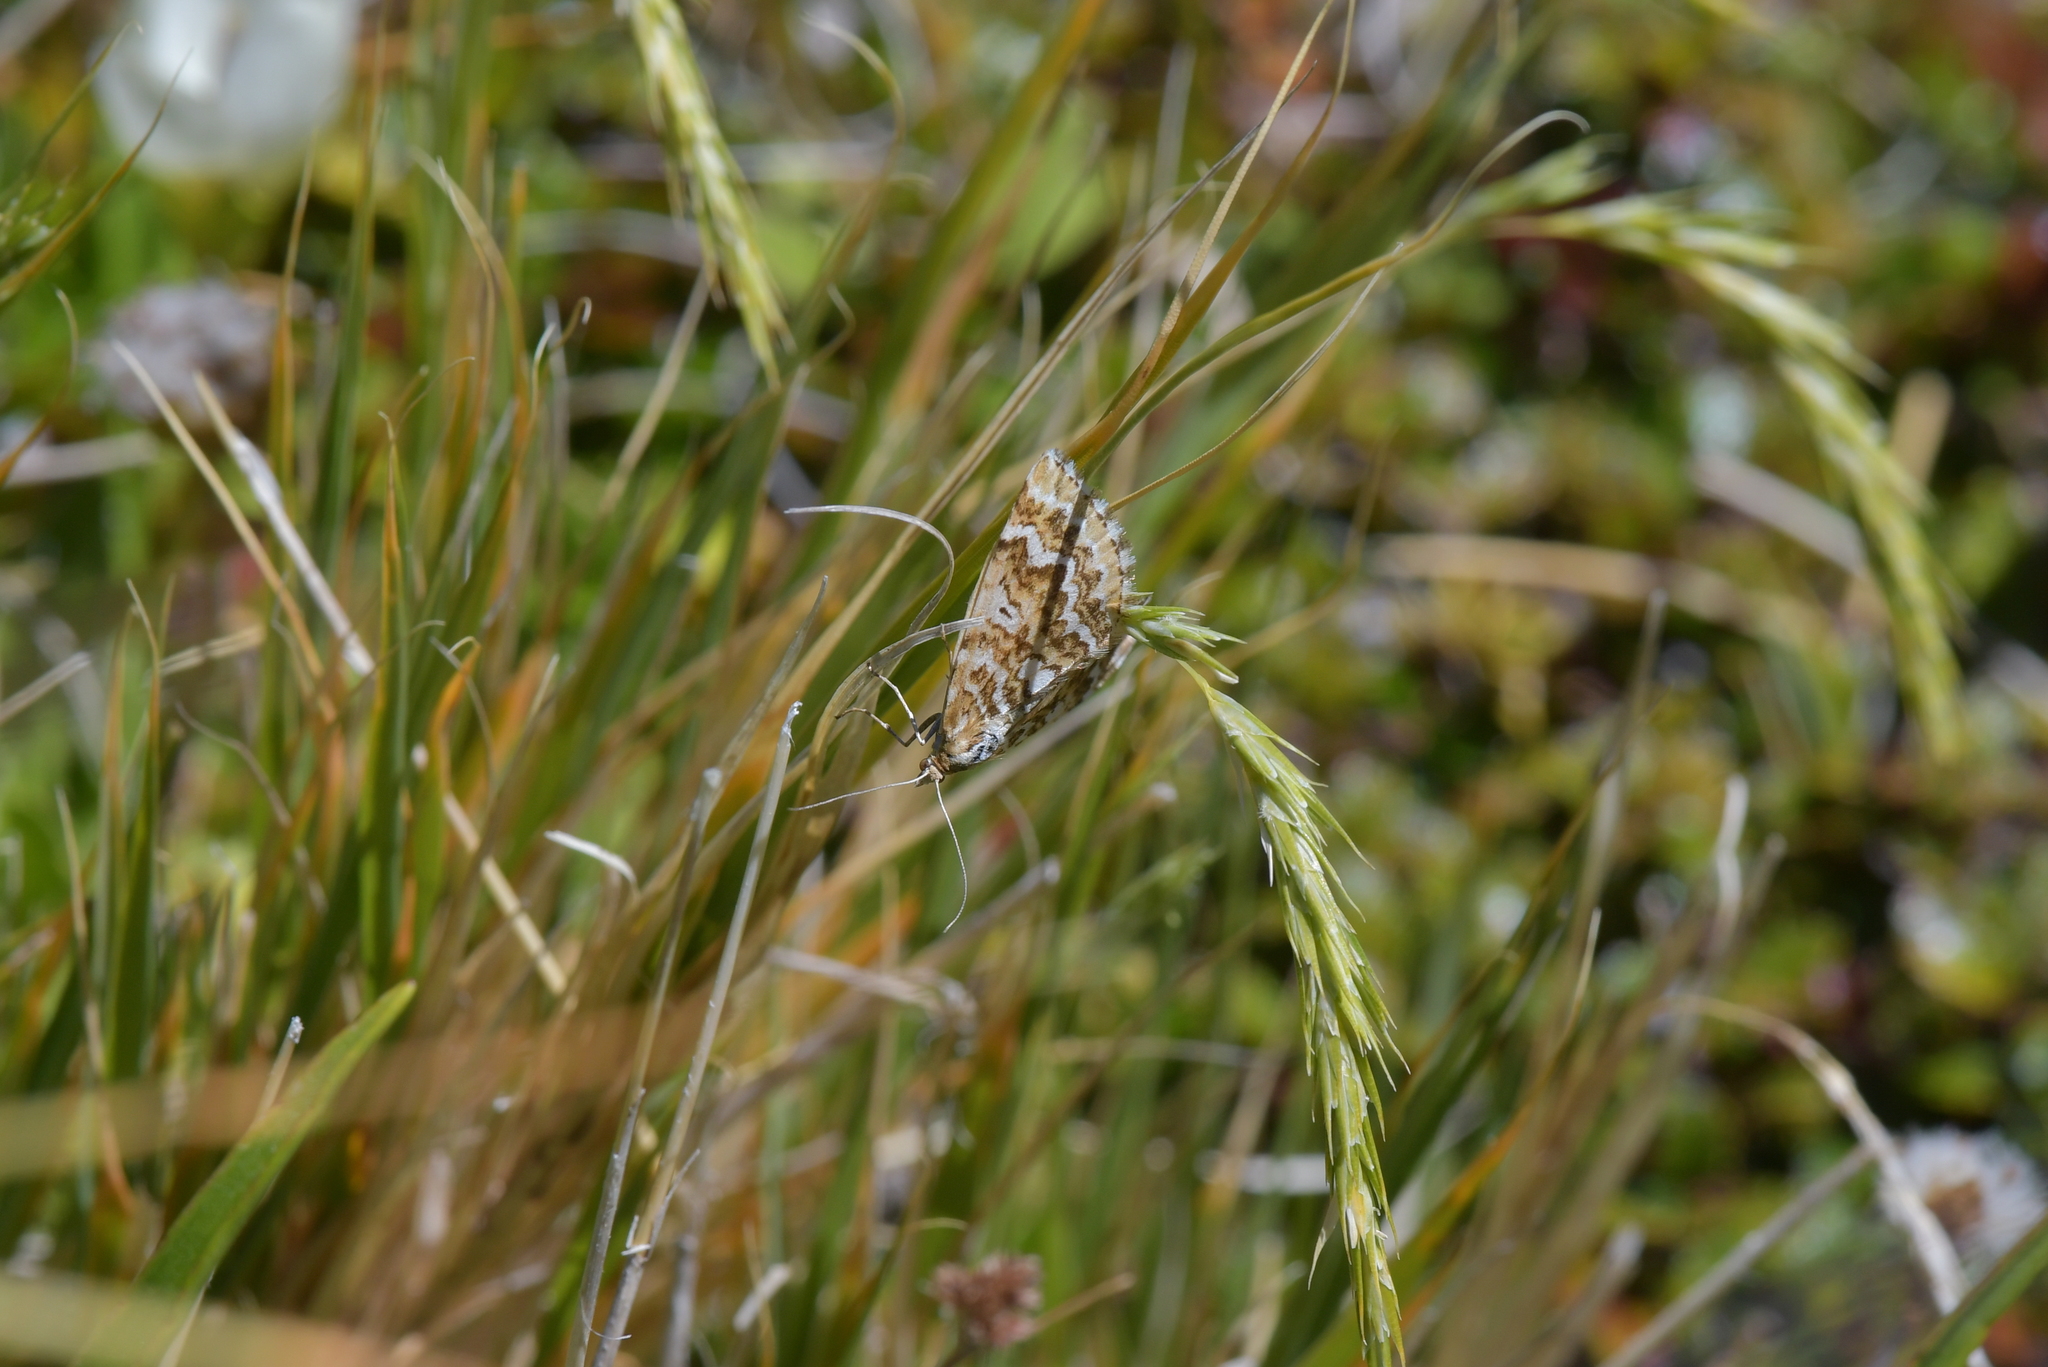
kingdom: Animalia
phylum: Arthropoda
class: Insecta
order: Lepidoptera
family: Geometridae
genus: Asaphodes
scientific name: Asaphodes clarata
